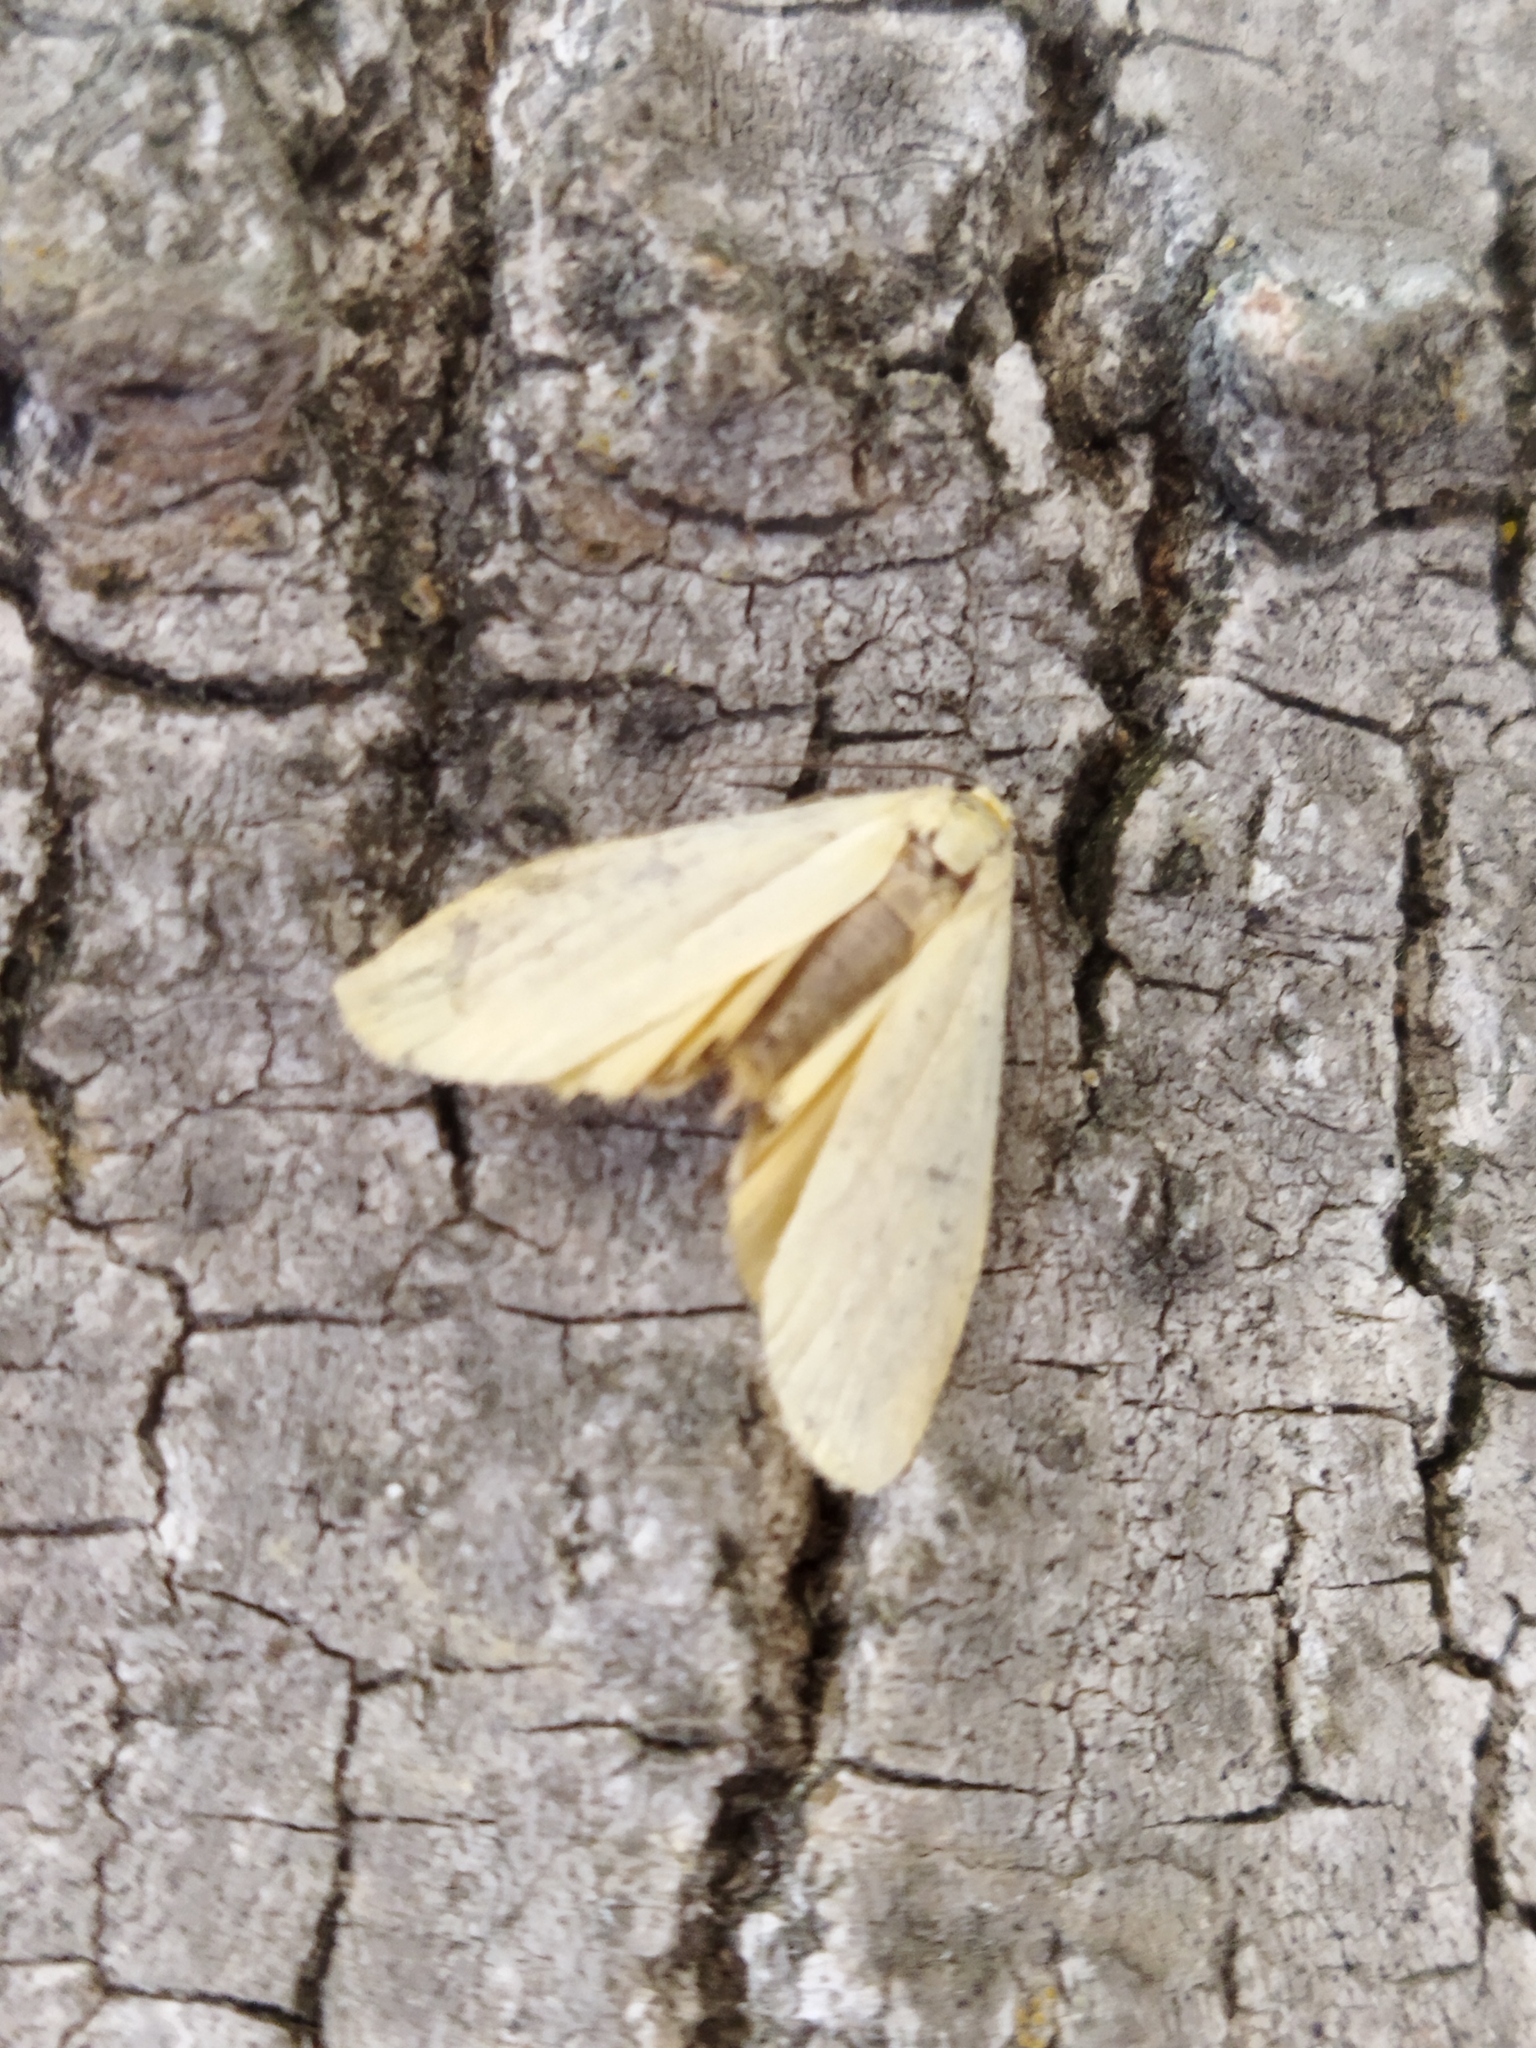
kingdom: Animalia
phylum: Arthropoda
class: Insecta
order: Lepidoptera
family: Erebidae
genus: Wittia
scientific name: Wittia sororcula
